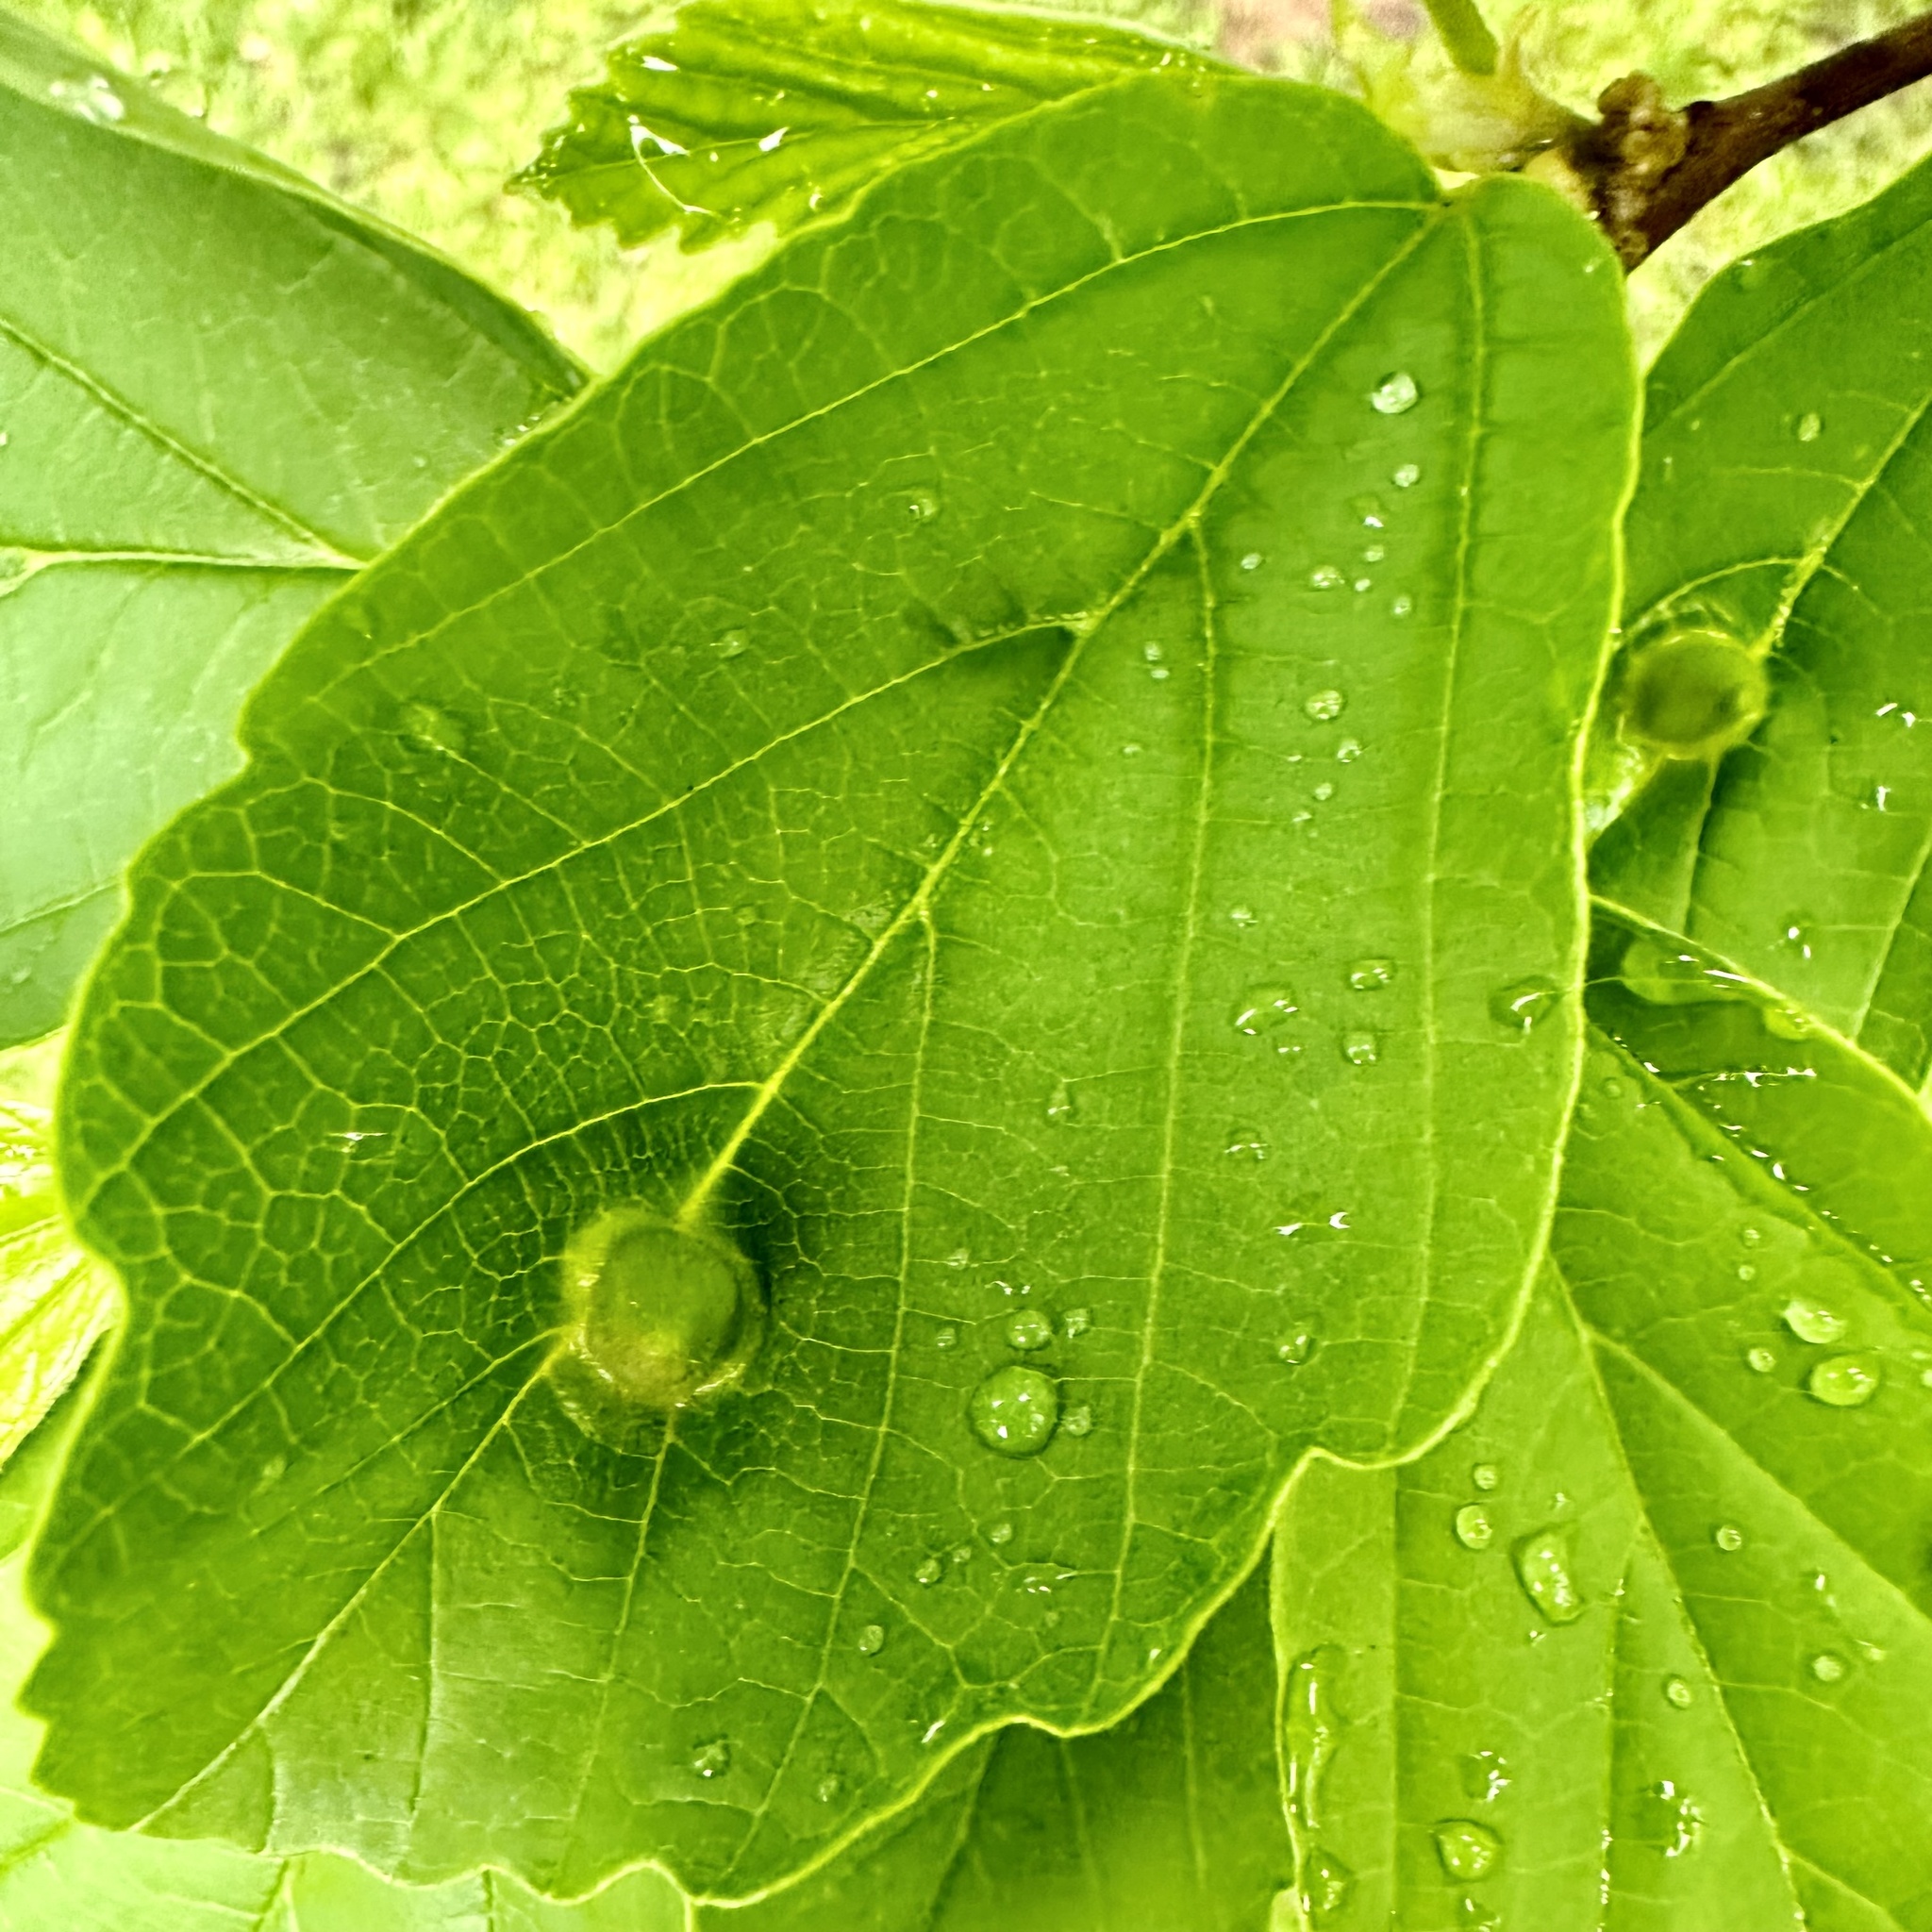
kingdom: Animalia
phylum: Arthropoda
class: Insecta
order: Hemiptera
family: Aphididae
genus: Hormaphis
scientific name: Hormaphis hamamelidis
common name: Witch-hazel cone gall aphid
